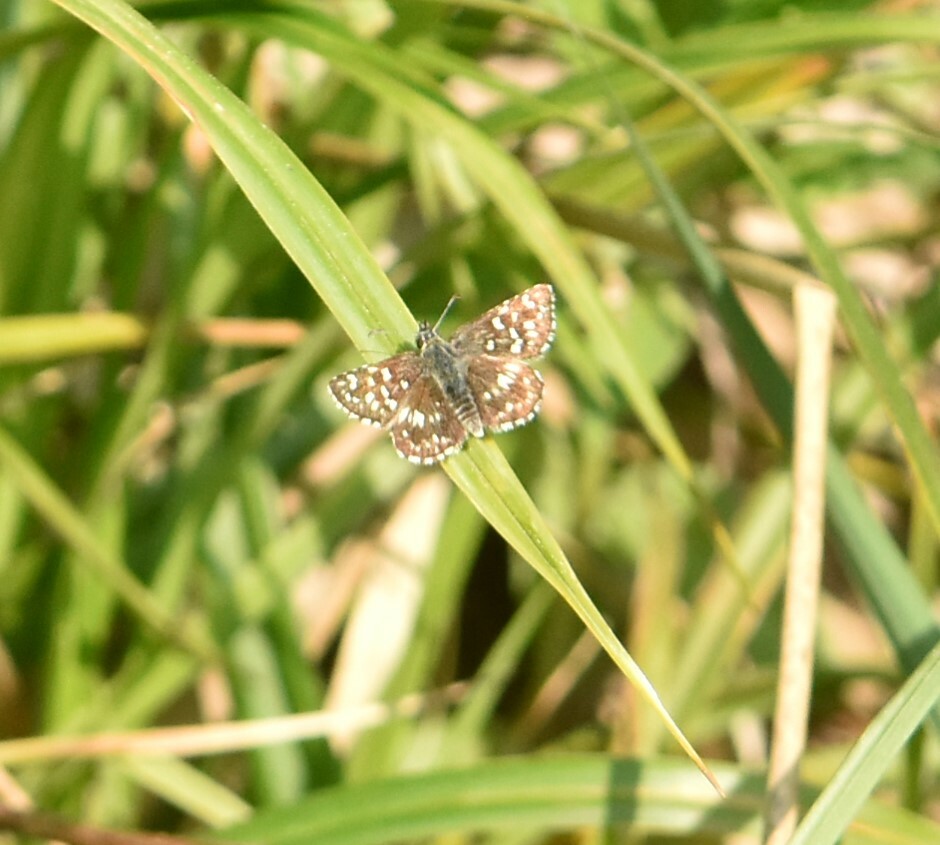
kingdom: Animalia
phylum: Arthropoda
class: Insecta
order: Lepidoptera
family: Hesperiidae
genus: Pyrgus
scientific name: Pyrgus malvae
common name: Grizzled skipper
